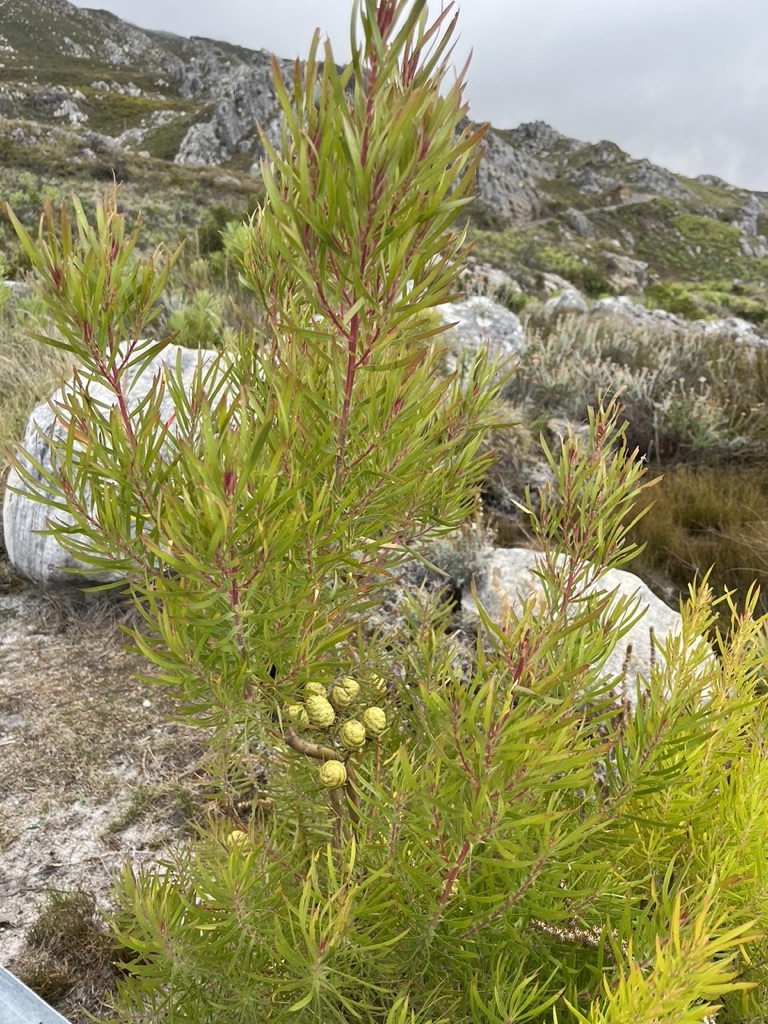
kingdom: Plantae
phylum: Tracheophyta
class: Magnoliopsida
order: Proteales
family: Proteaceae
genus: Leucadendron
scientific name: Leucadendron salicifolium
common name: Common stream conebush
